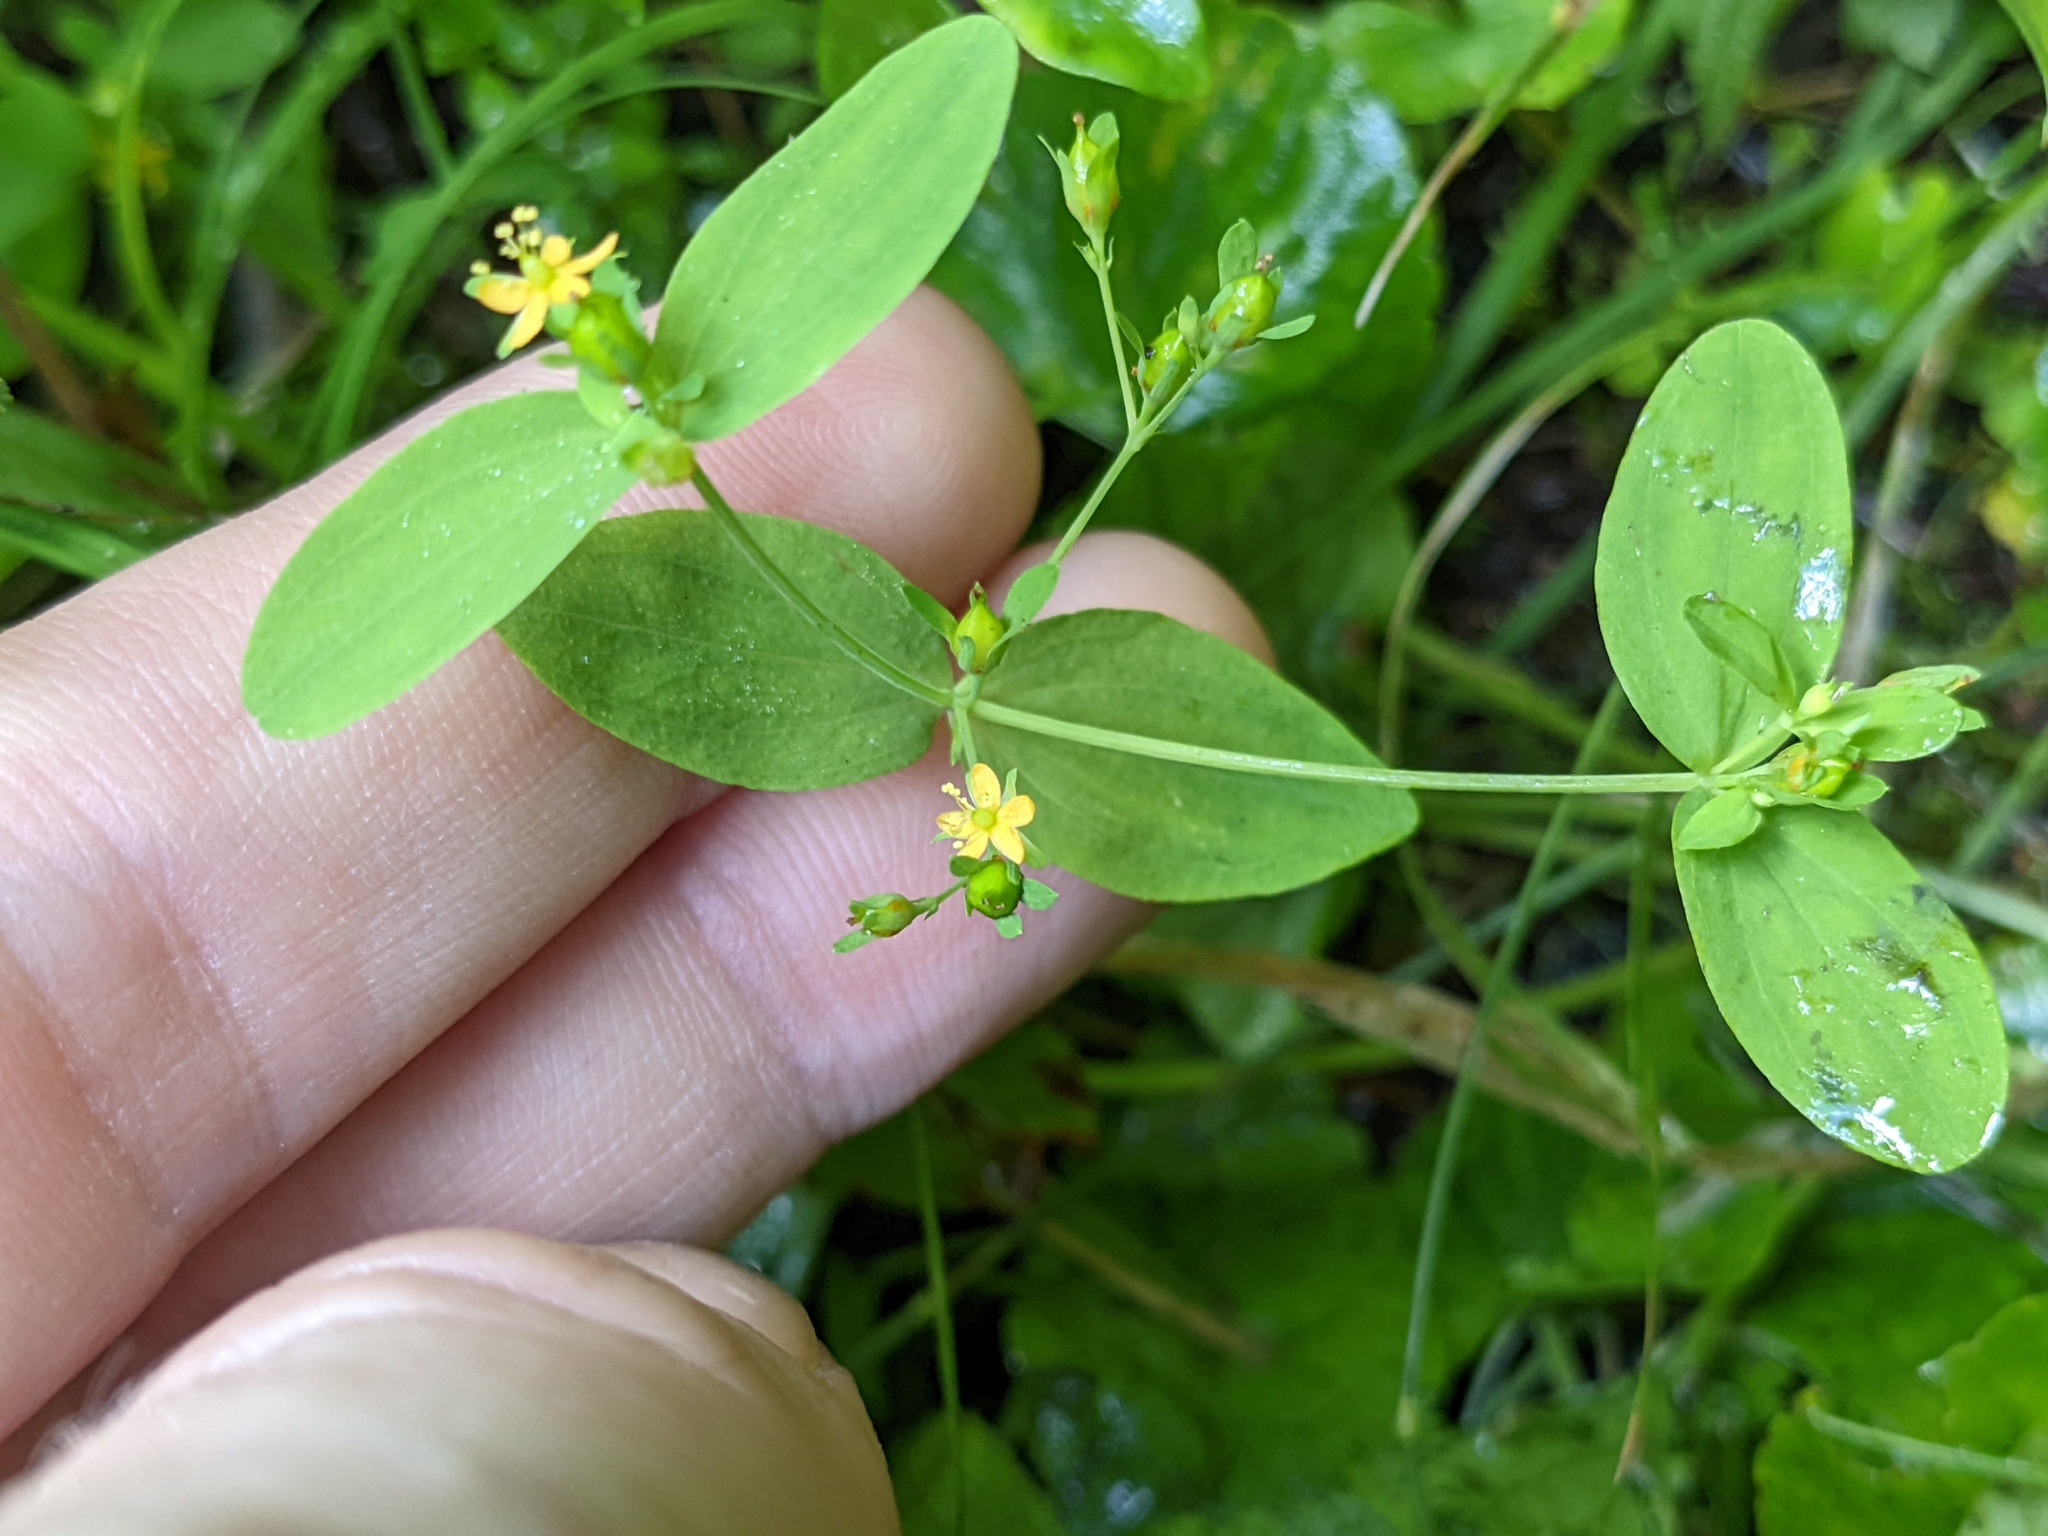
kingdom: Plantae
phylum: Tracheophyta
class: Magnoliopsida
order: Malpighiales
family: Hypericaceae
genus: Hypericum
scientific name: Hypericum mutilum
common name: Dwarf st. john's-wort
